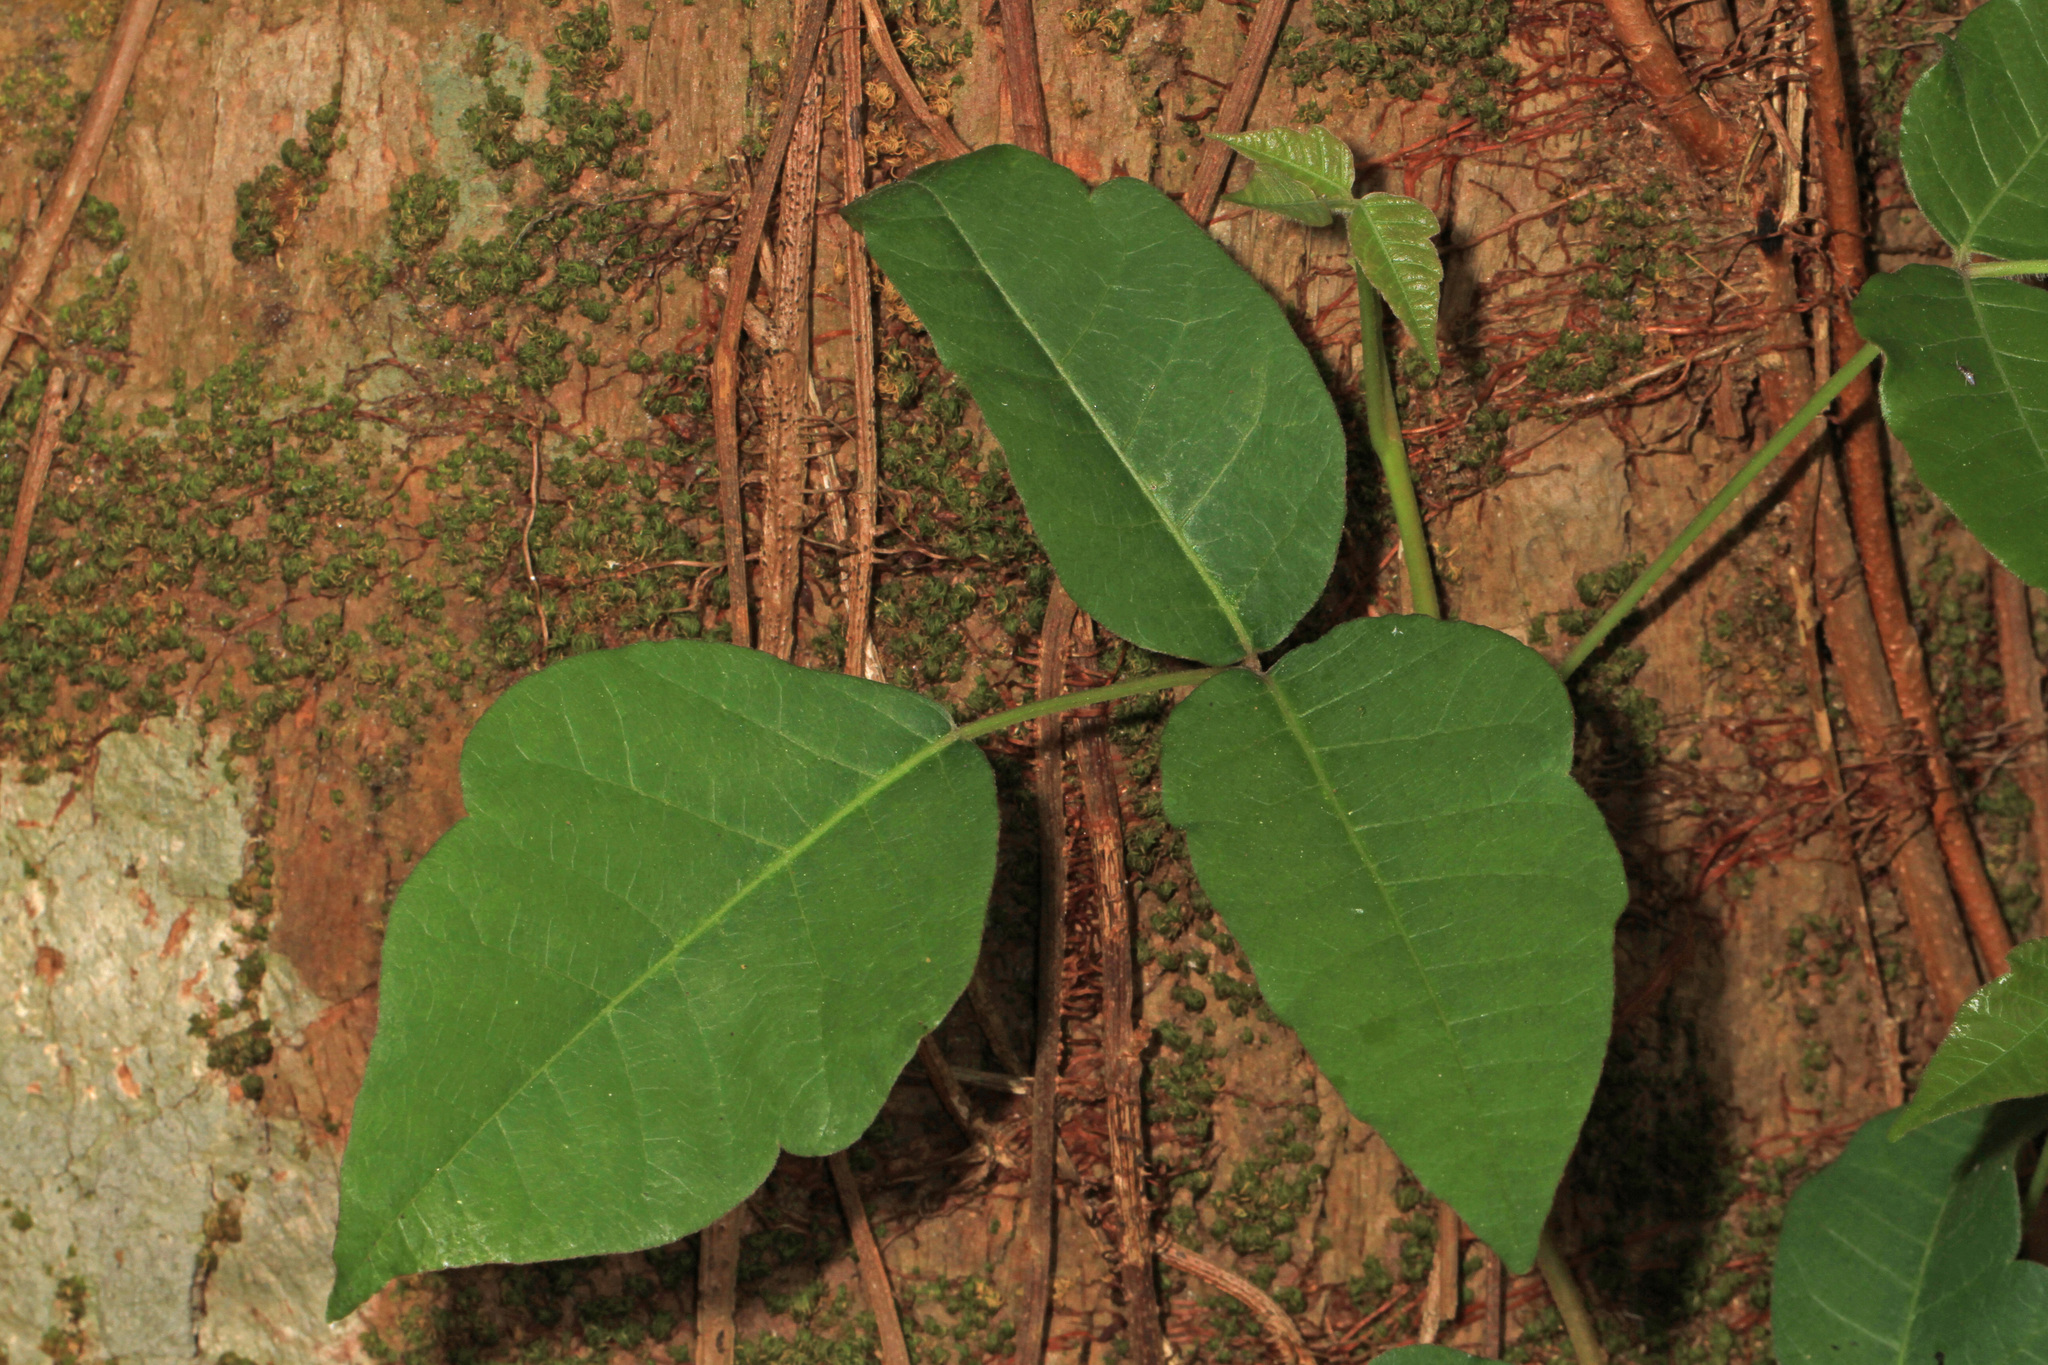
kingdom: Plantae
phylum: Tracheophyta
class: Magnoliopsida
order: Sapindales
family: Anacardiaceae
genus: Toxicodendron
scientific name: Toxicodendron radicans
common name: Poison ivy
